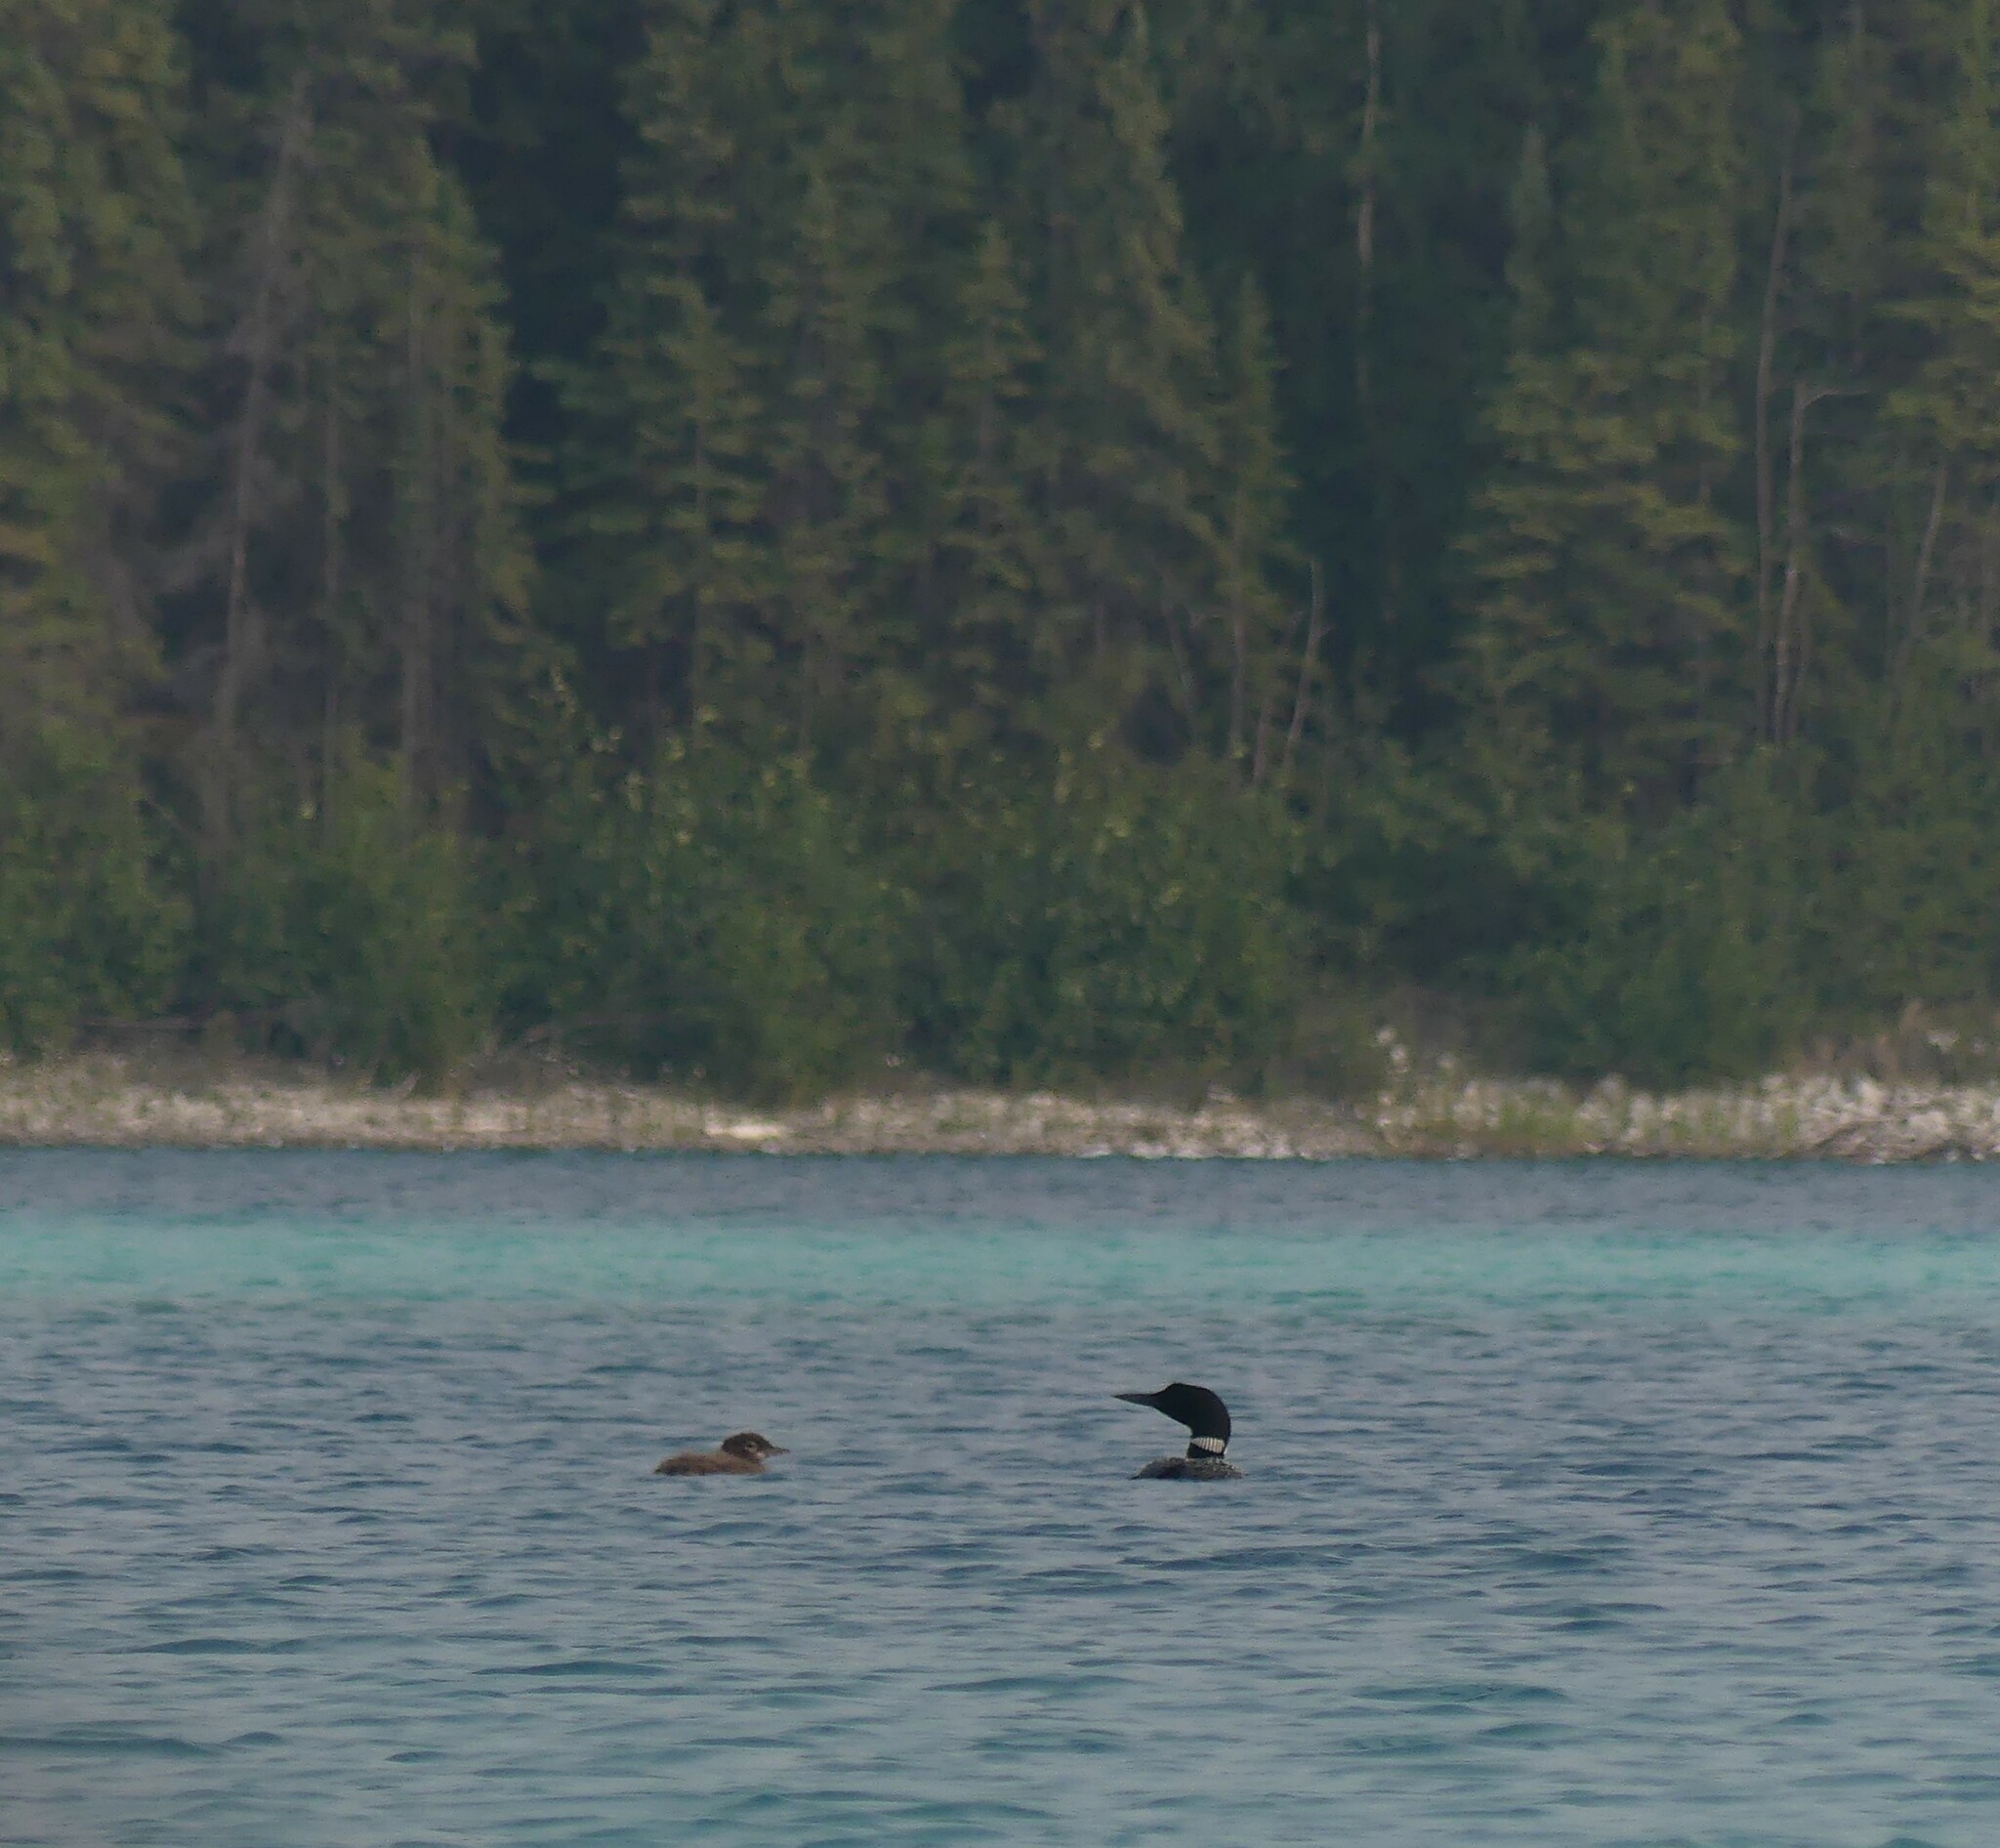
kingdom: Animalia
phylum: Chordata
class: Aves
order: Gaviiformes
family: Gaviidae
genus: Gavia
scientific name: Gavia immer
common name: Common loon
